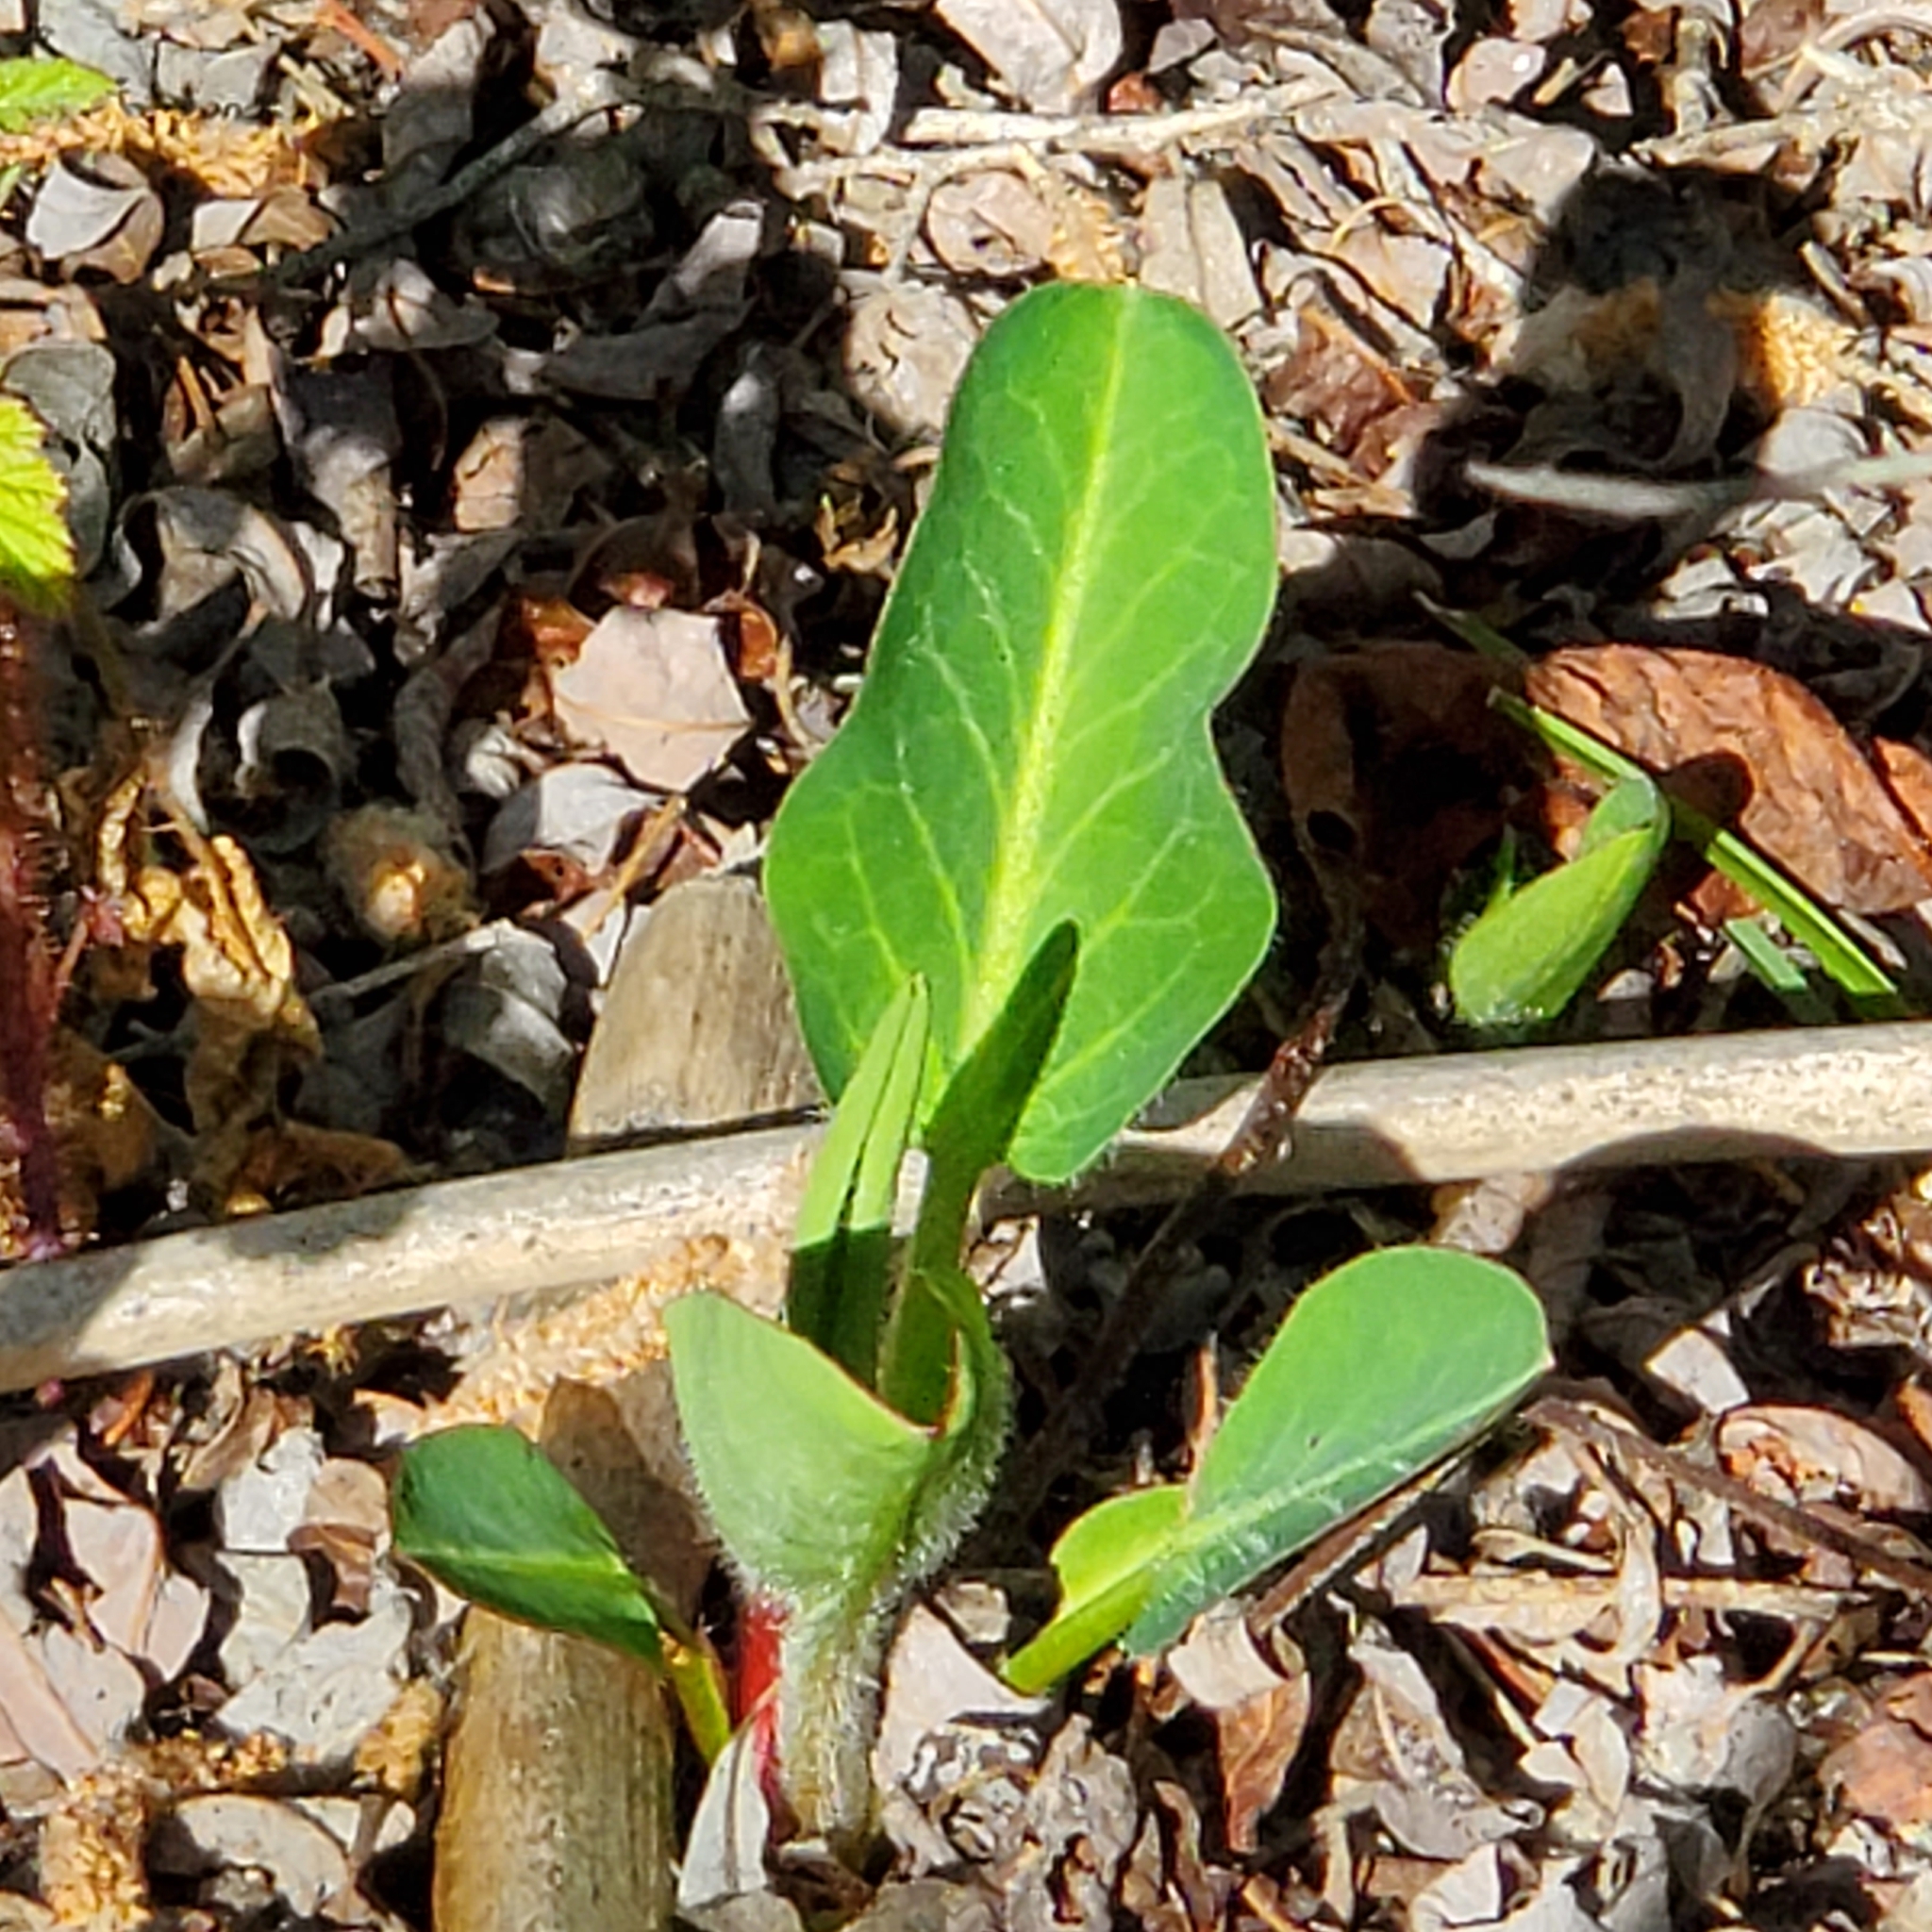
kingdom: Plantae
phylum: Tracheophyta
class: Magnoliopsida
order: Piperales
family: Saururaceae
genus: Anemopsis
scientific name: Anemopsis californica
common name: Apache-beads
